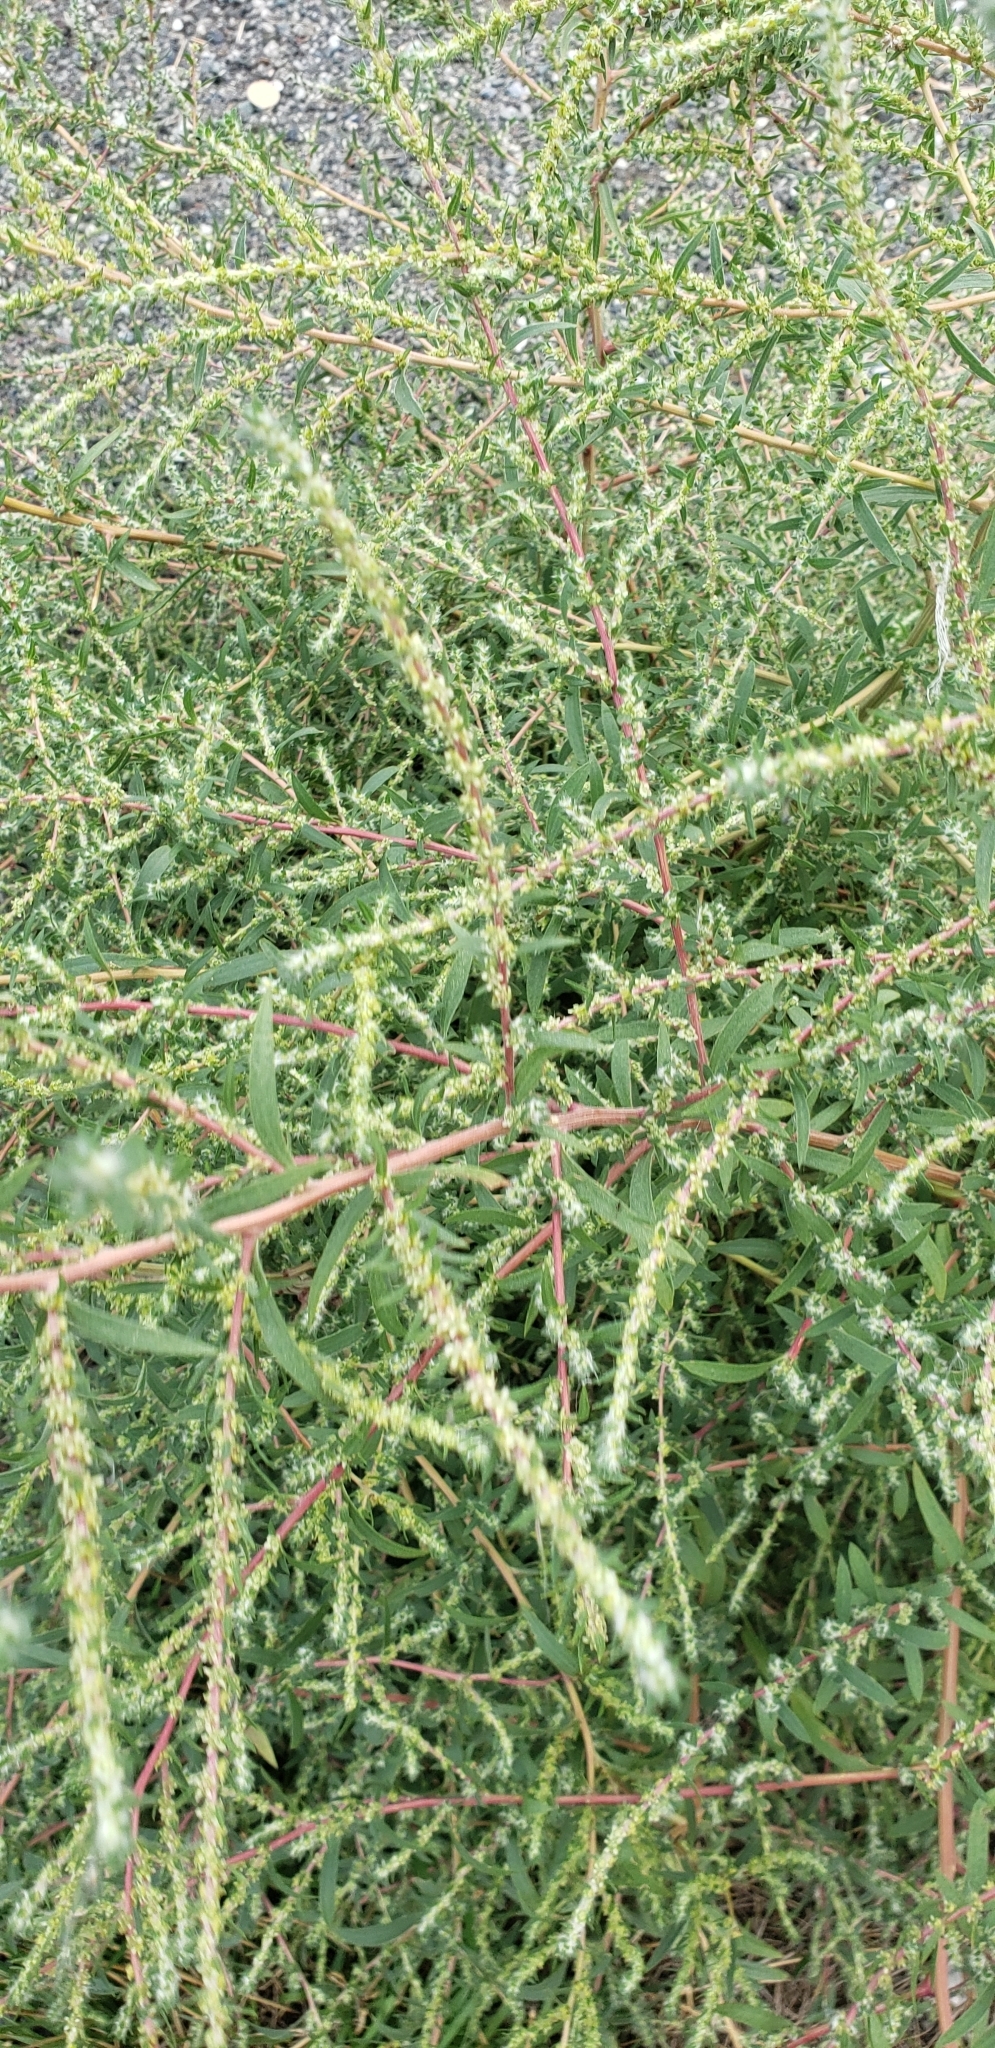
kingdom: Plantae
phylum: Tracheophyta
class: Magnoliopsida
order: Caryophyllales
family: Amaranthaceae
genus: Bassia
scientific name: Bassia scoparia
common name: Belvedere
